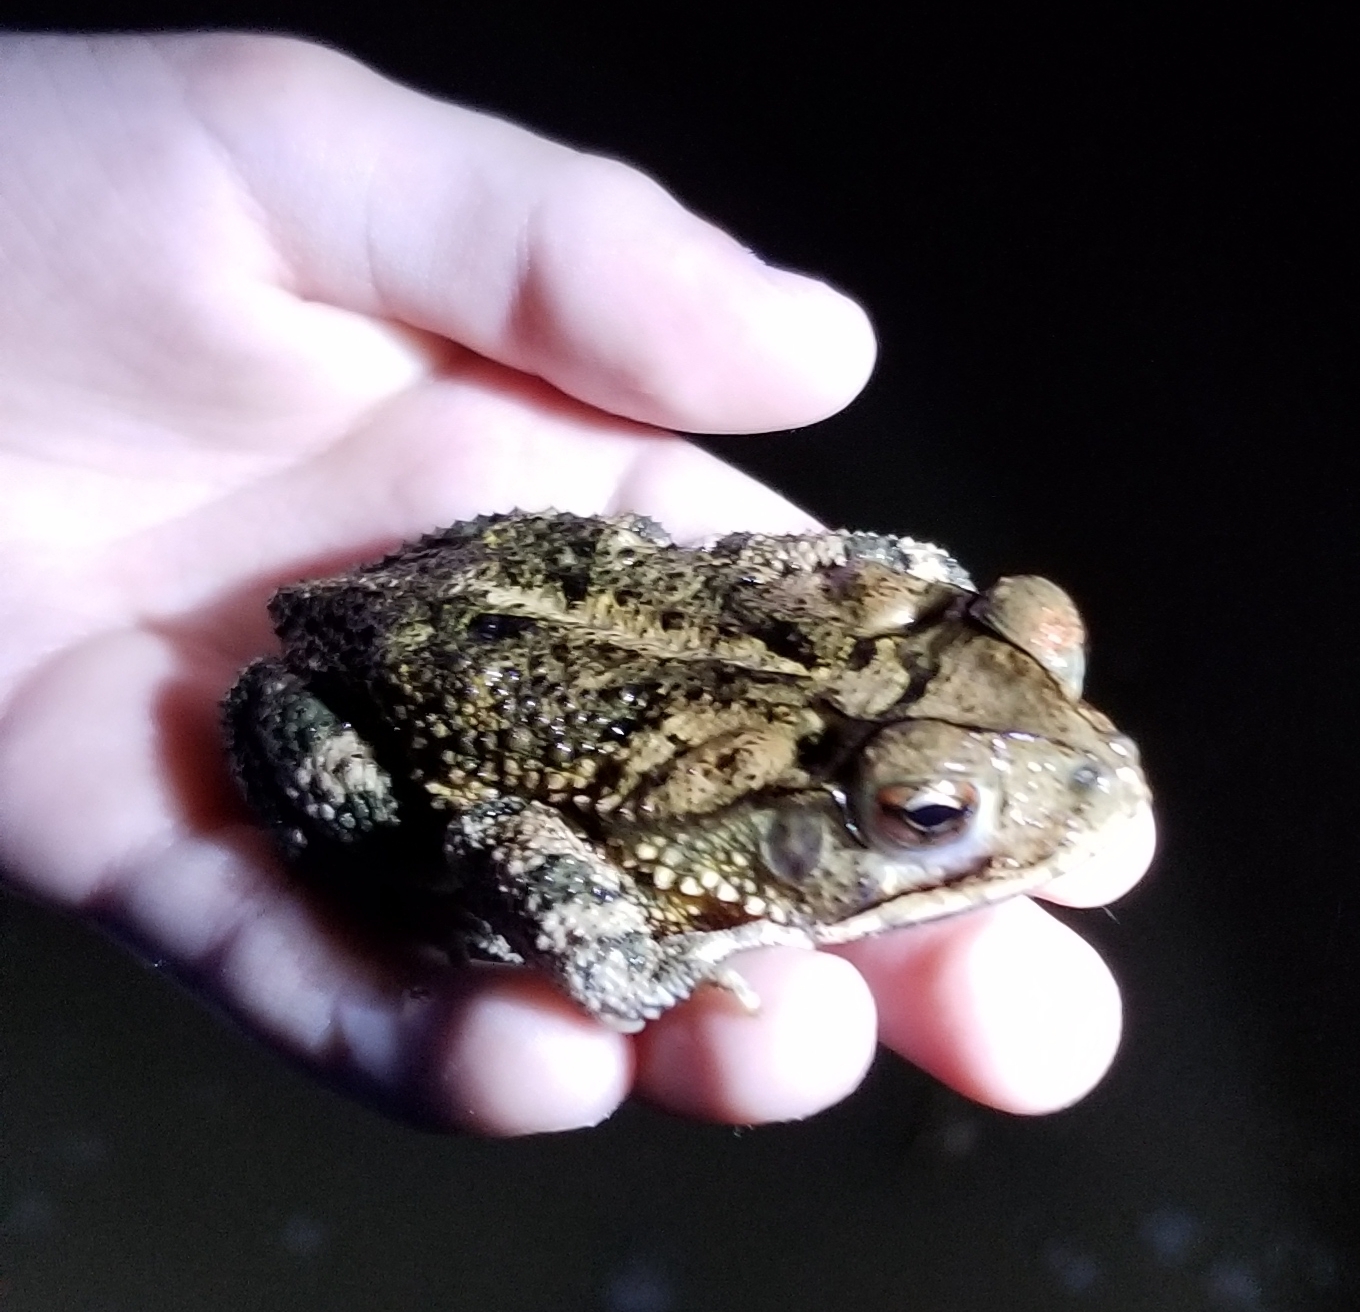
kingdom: Animalia
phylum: Chordata
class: Amphibia
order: Anura
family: Bufonidae
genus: Incilius
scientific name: Incilius nebulifer
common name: Gulf coast toad
